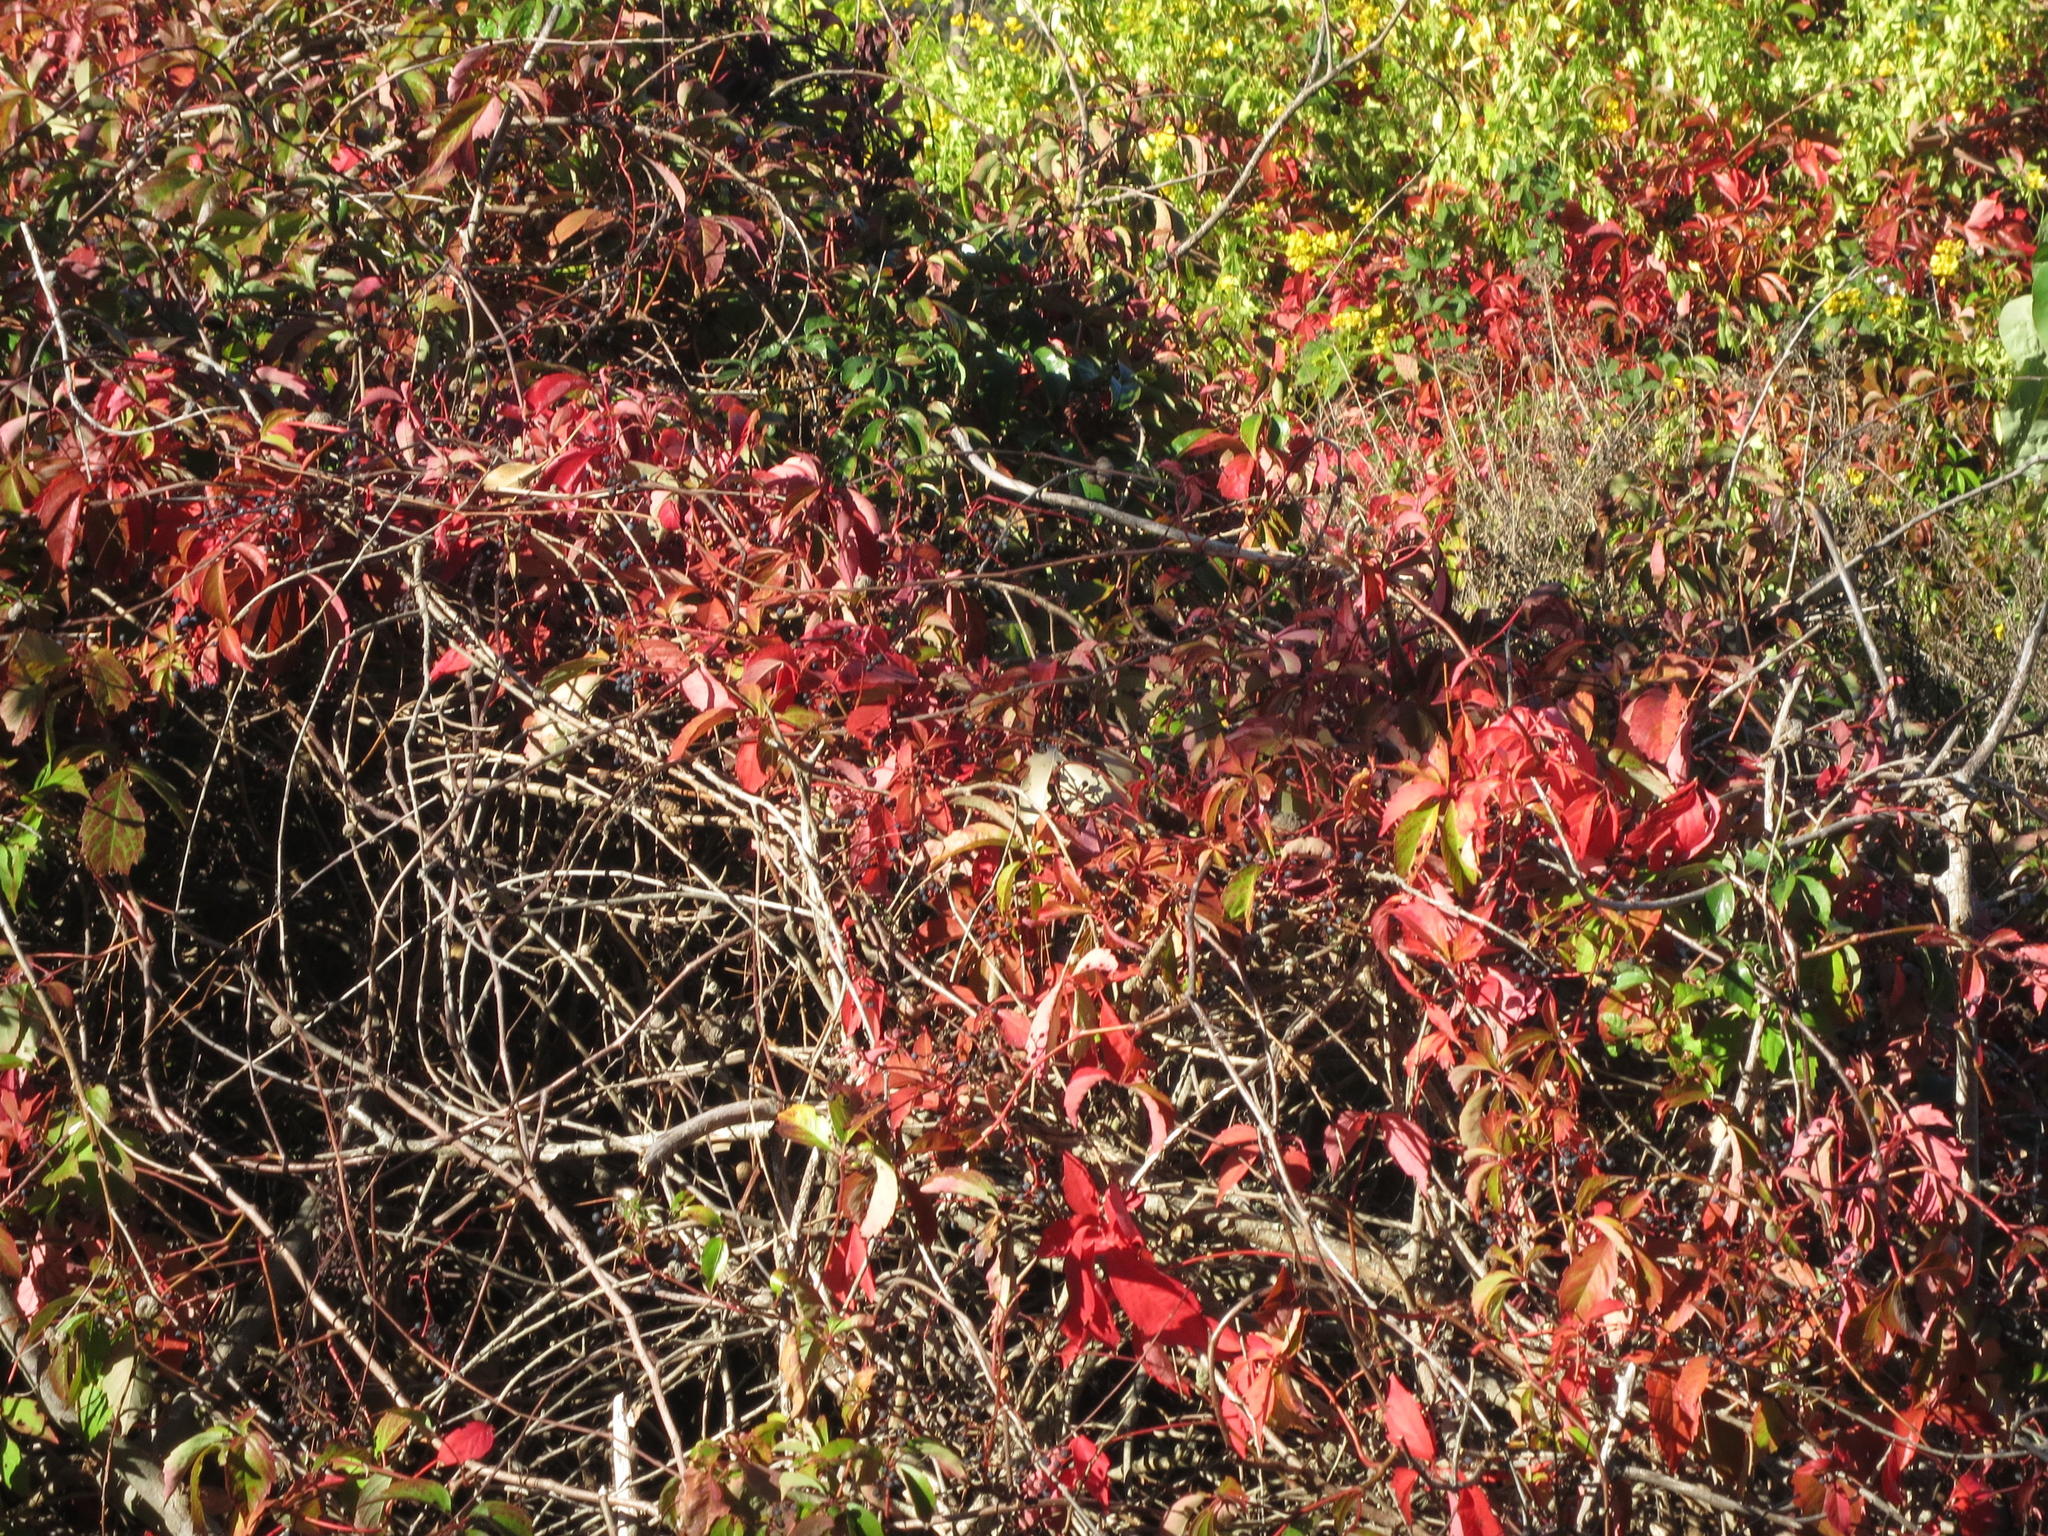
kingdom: Plantae
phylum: Tracheophyta
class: Magnoliopsida
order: Vitales
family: Vitaceae
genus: Parthenocissus
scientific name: Parthenocissus quinquefolia
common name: Virginia-creeper
